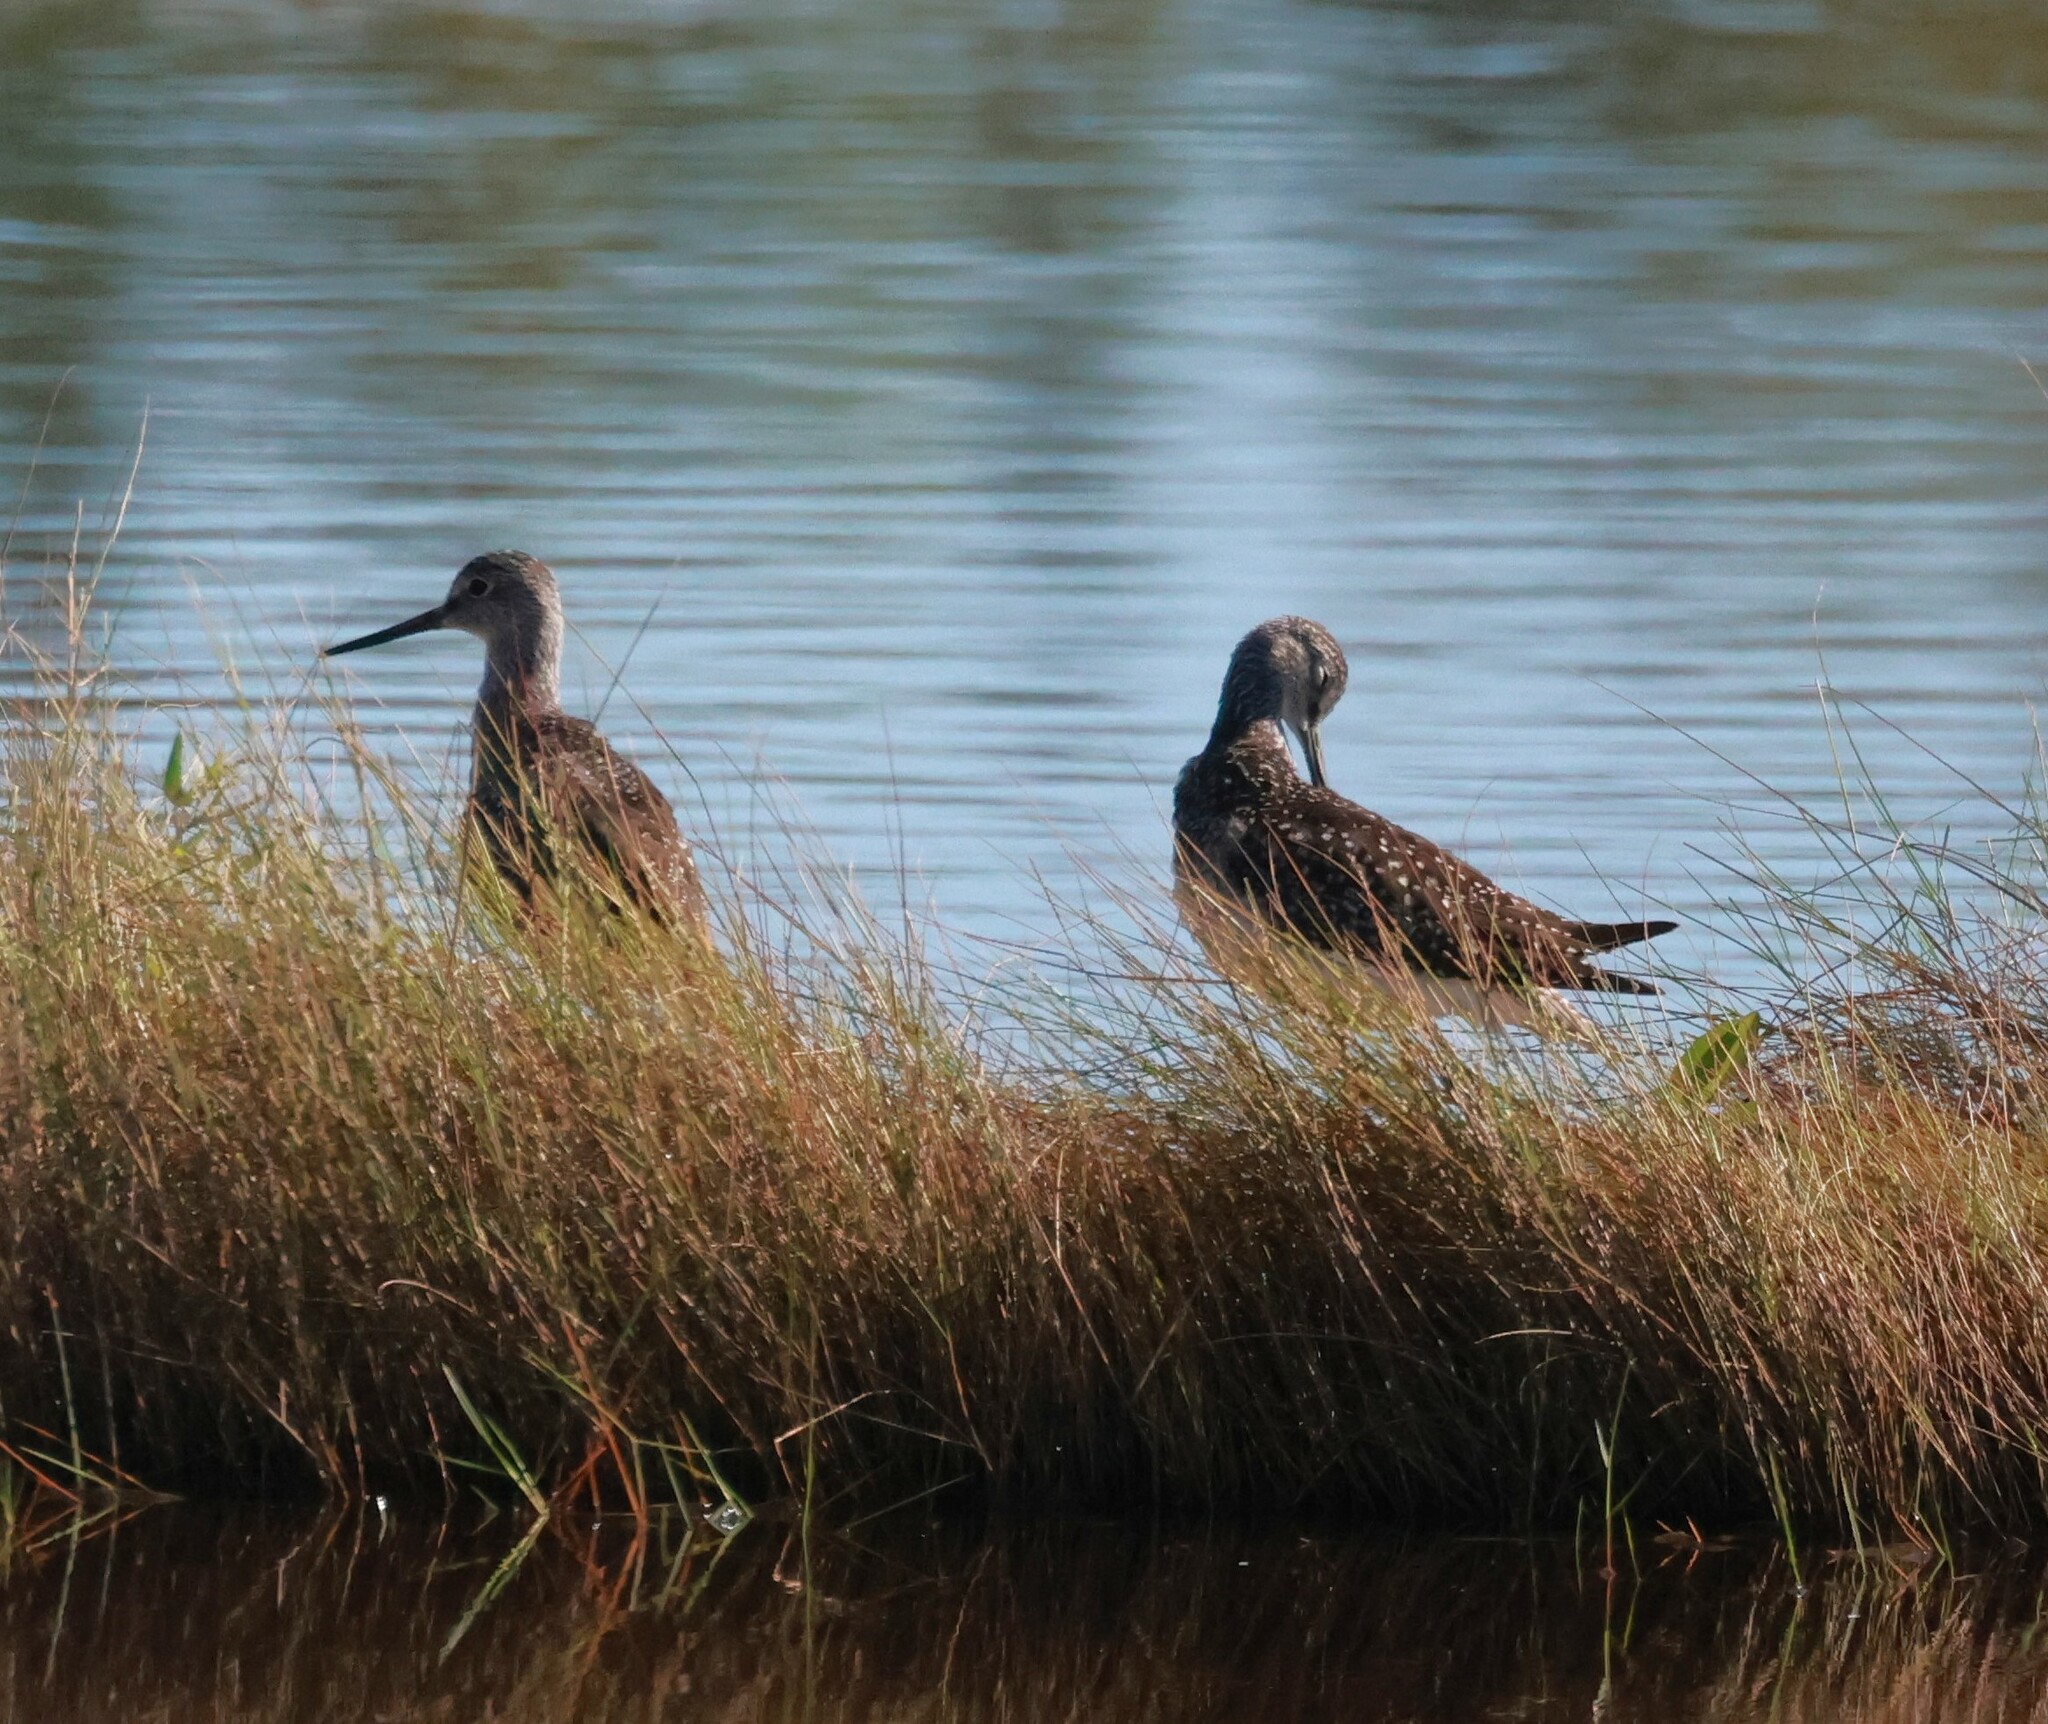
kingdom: Animalia
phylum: Chordata
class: Aves
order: Charadriiformes
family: Scolopacidae
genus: Tringa
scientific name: Tringa melanoleuca
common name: Greater yellowlegs
